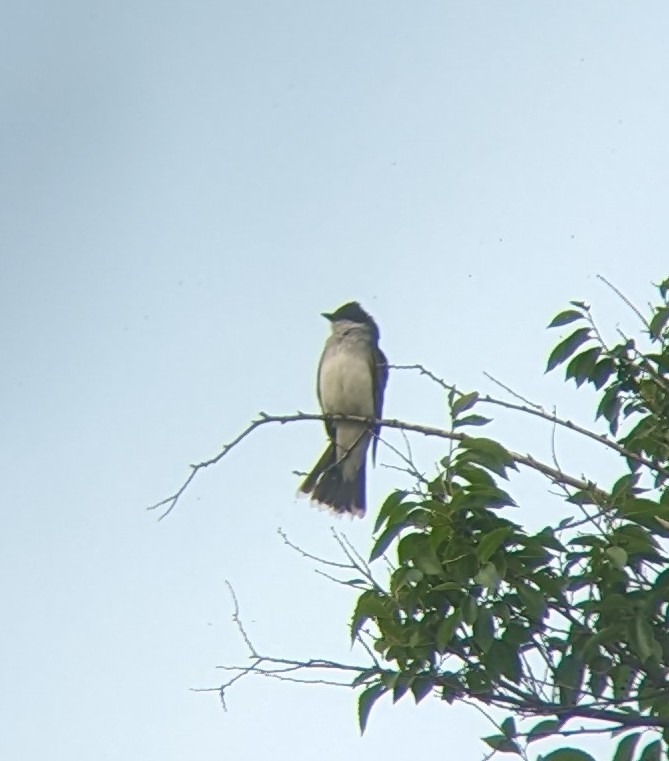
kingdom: Animalia
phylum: Chordata
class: Aves
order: Passeriformes
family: Tyrannidae
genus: Tyrannus
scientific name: Tyrannus tyrannus
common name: Eastern kingbird
